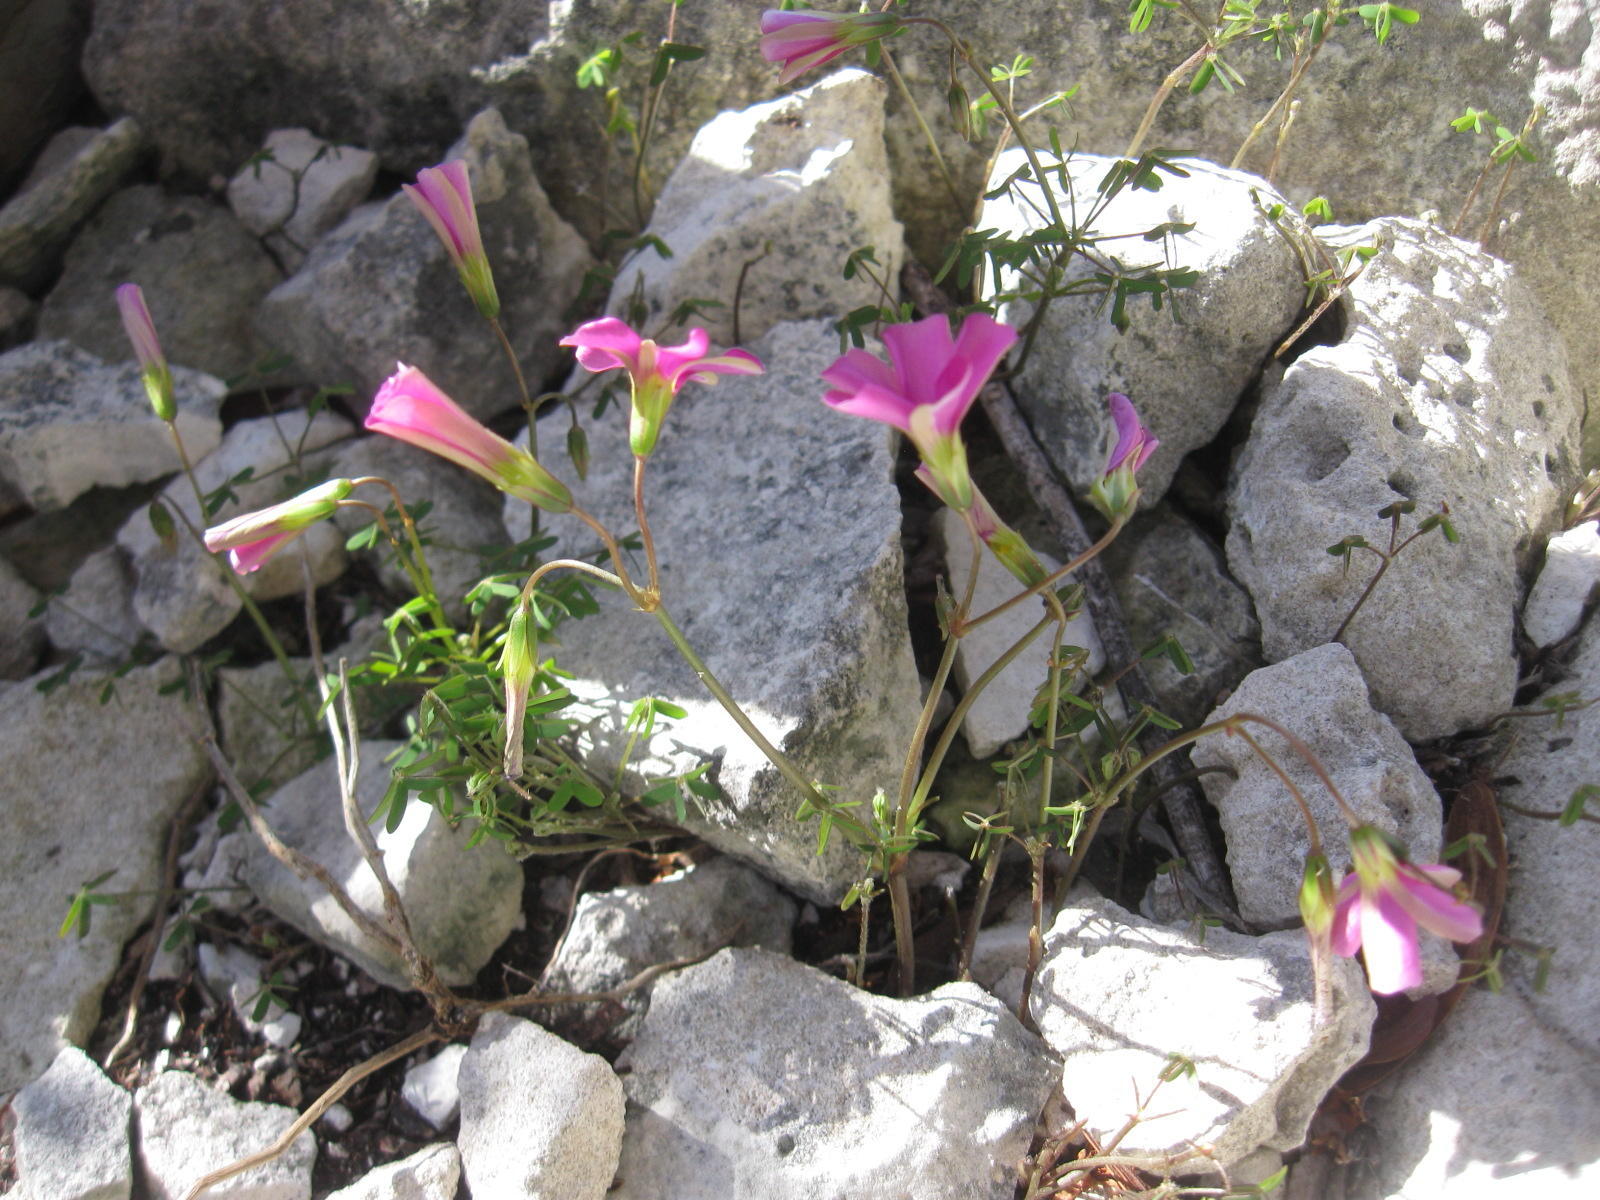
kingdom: Plantae
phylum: Tracheophyta
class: Magnoliopsida
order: Oxalidales
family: Oxalidaceae
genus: Oxalis
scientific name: Oxalis stellata
